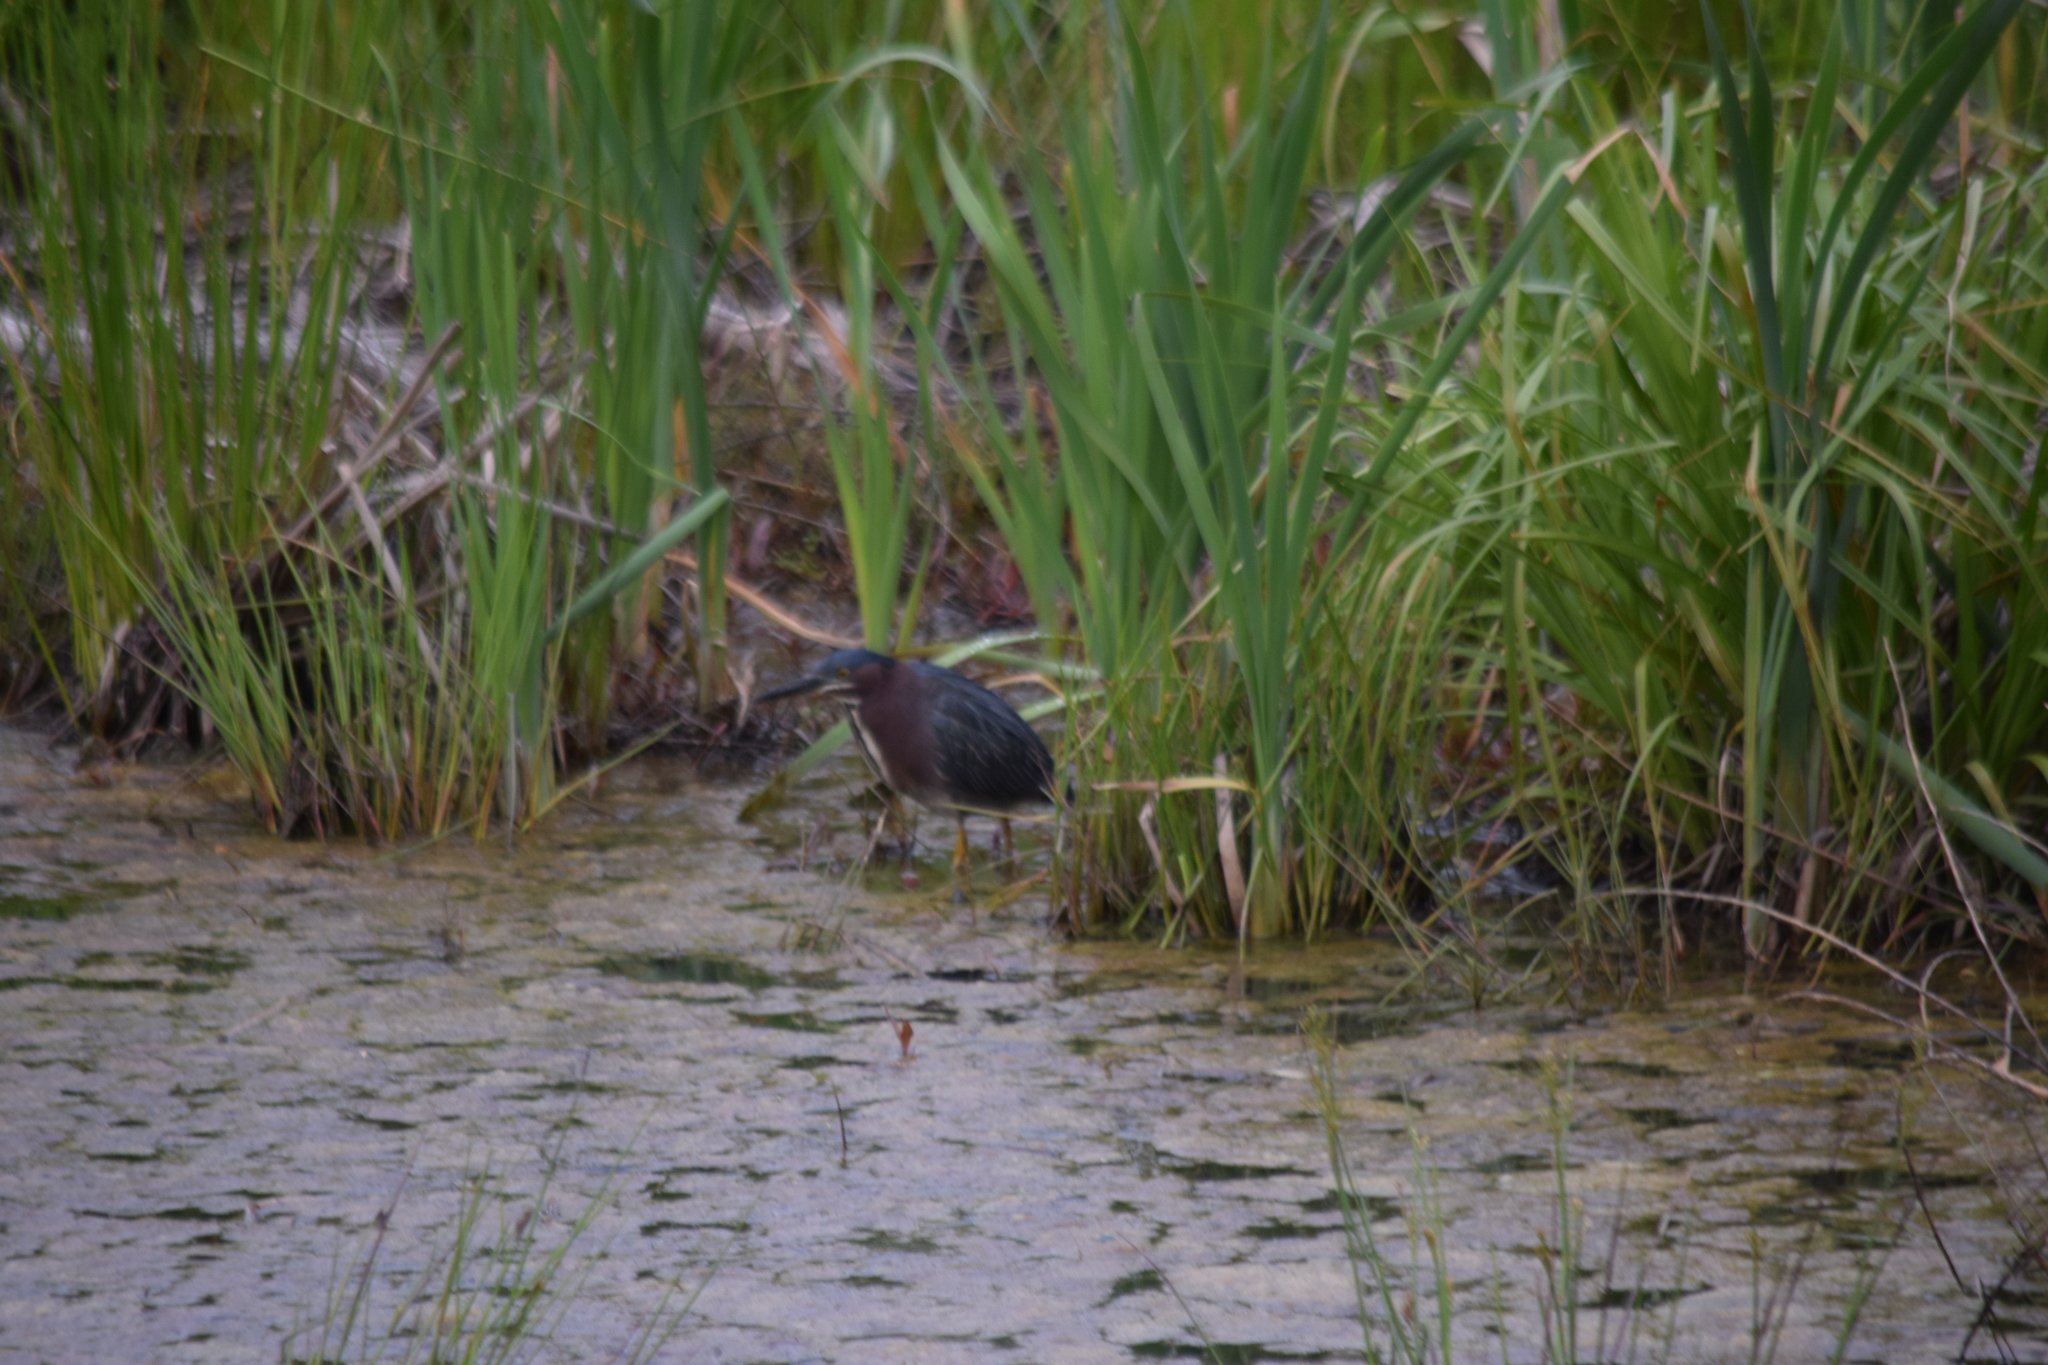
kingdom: Animalia
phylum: Chordata
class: Aves
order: Pelecaniformes
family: Ardeidae
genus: Butorides
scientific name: Butorides virescens
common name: Green heron
